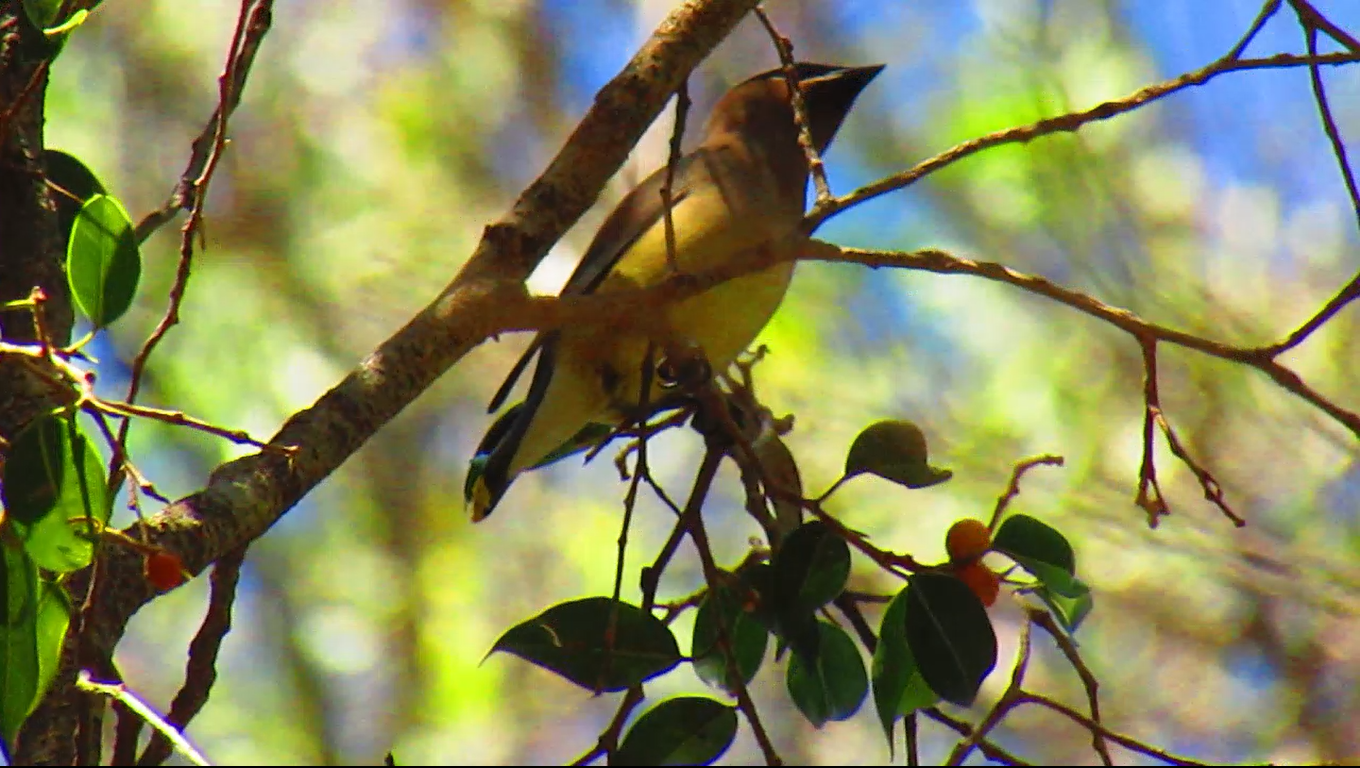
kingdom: Animalia
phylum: Chordata
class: Aves
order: Passeriformes
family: Bombycillidae
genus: Bombycilla
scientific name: Bombycilla cedrorum
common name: Cedar waxwing
